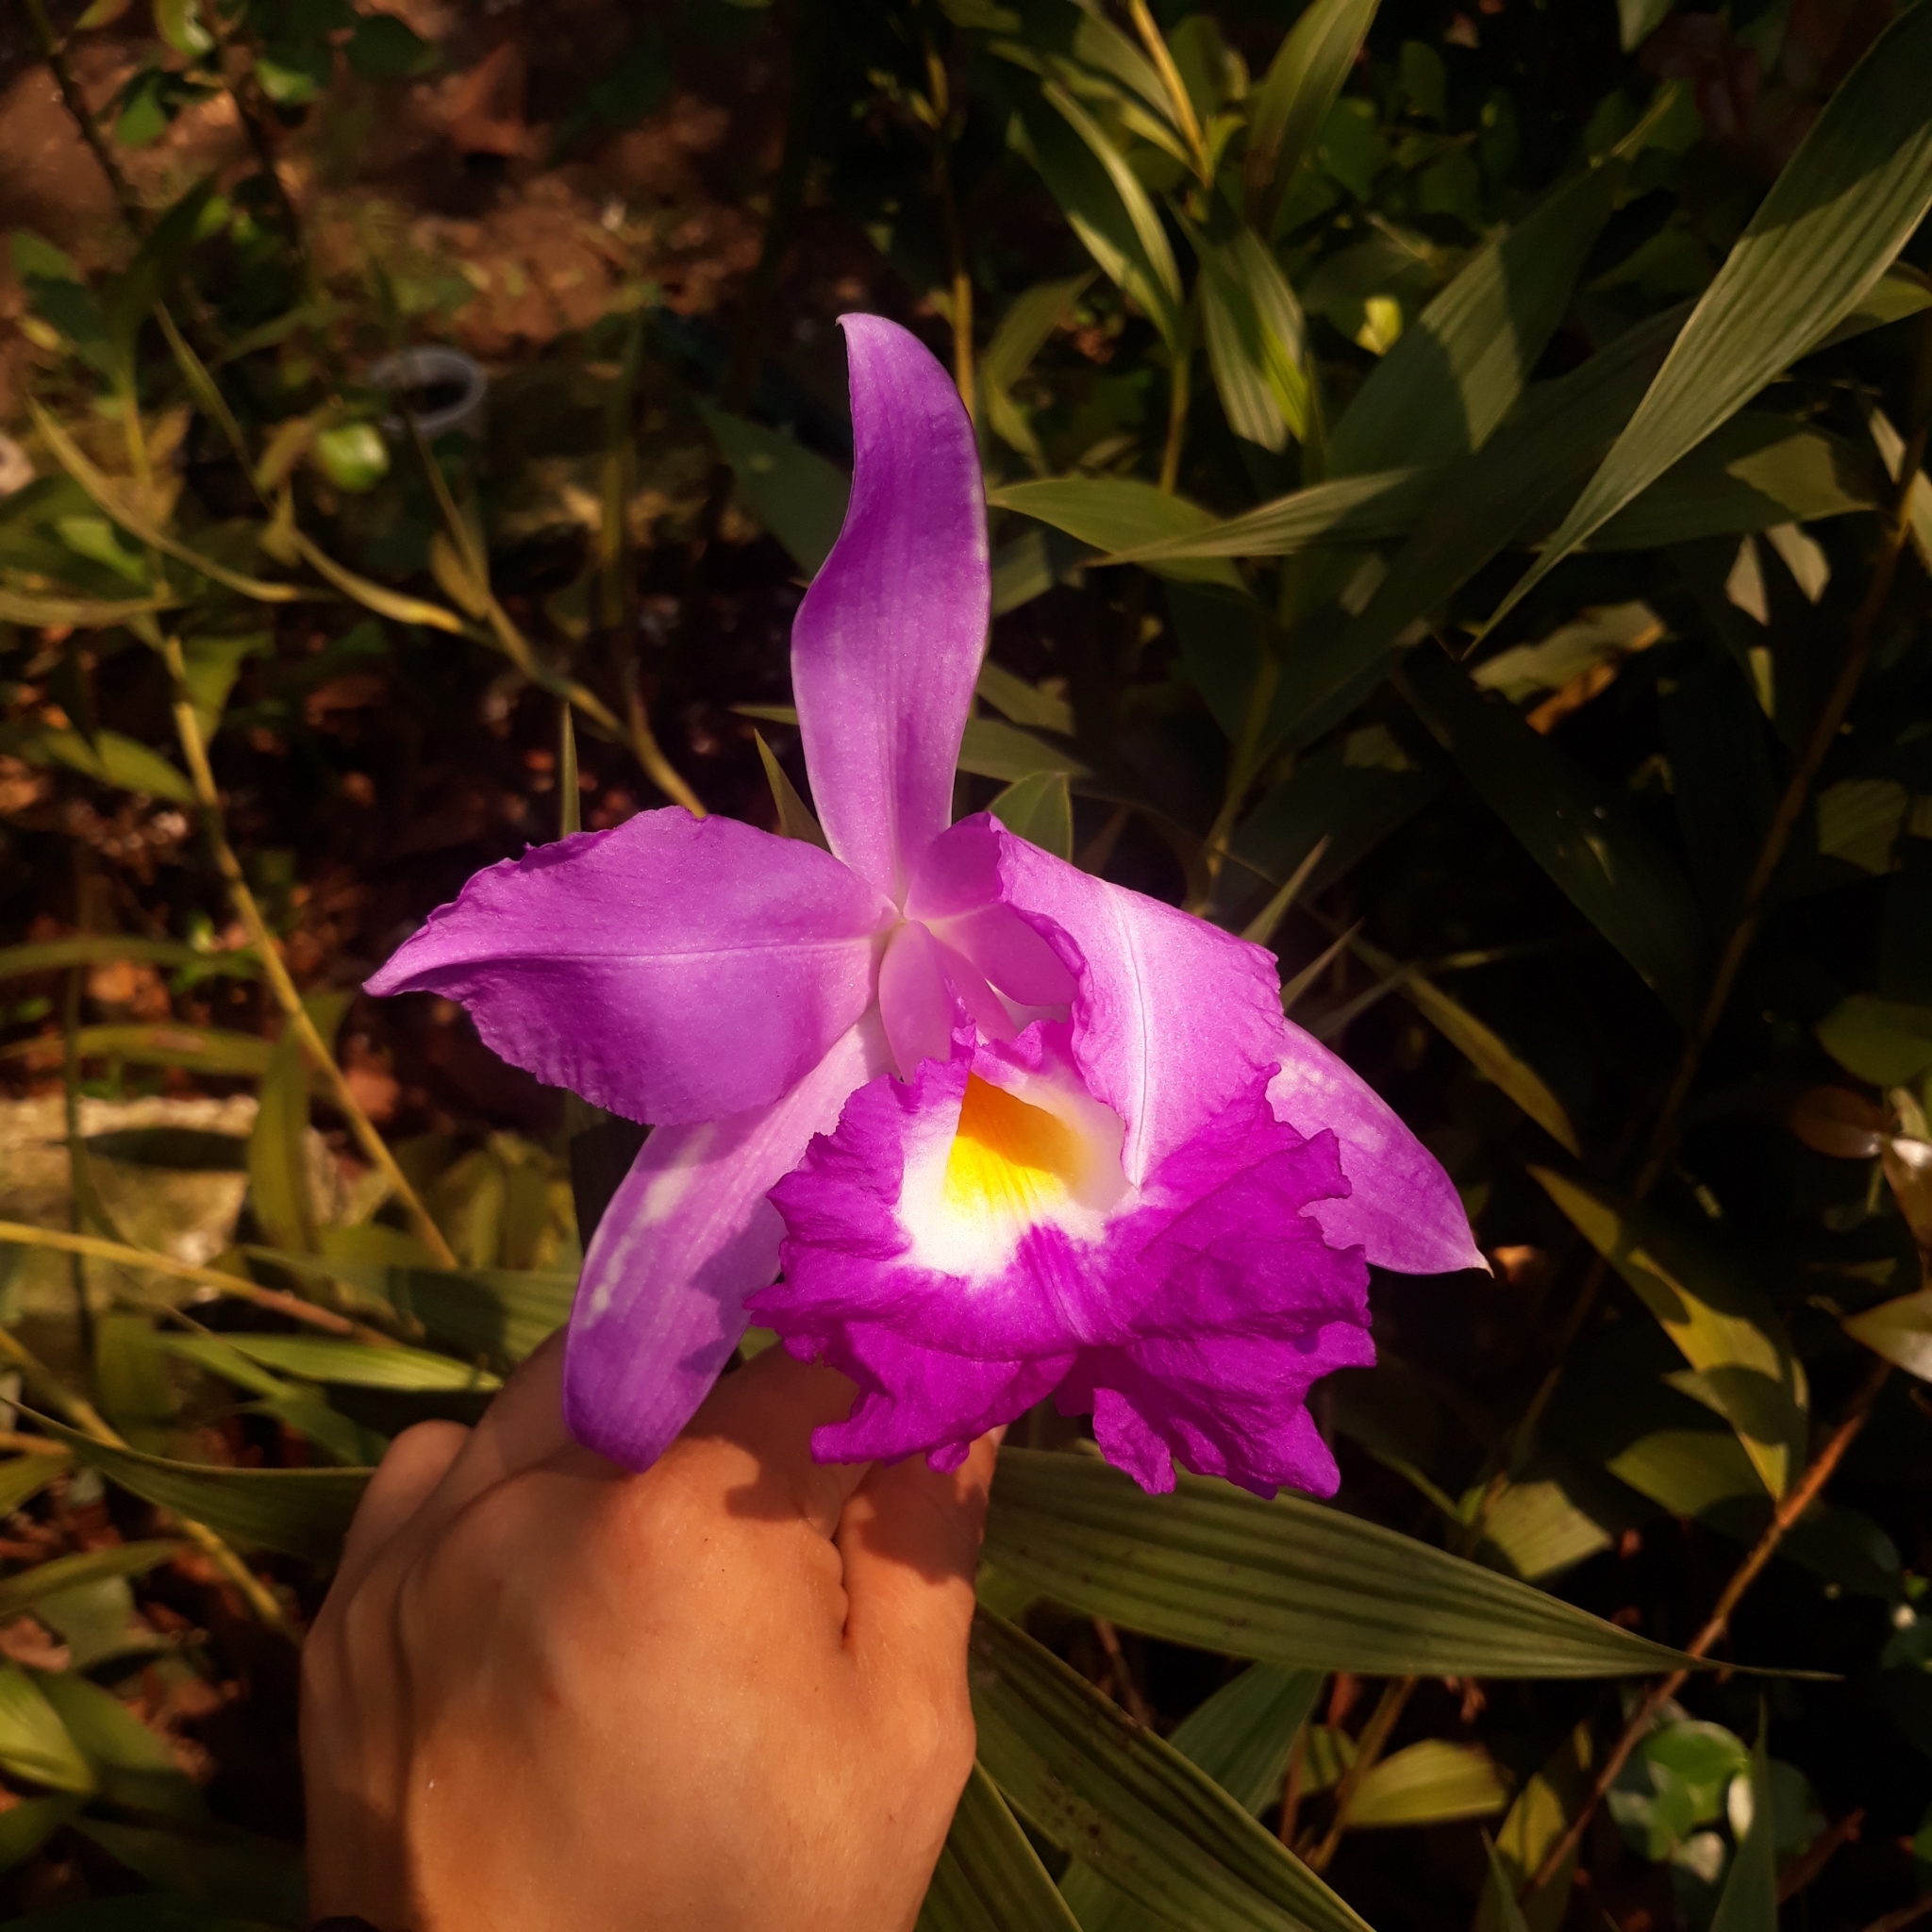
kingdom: Plantae
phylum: Tracheophyta
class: Liliopsida
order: Asparagales
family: Orchidaceae
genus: Sobralia
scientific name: Sobralia macrantha
